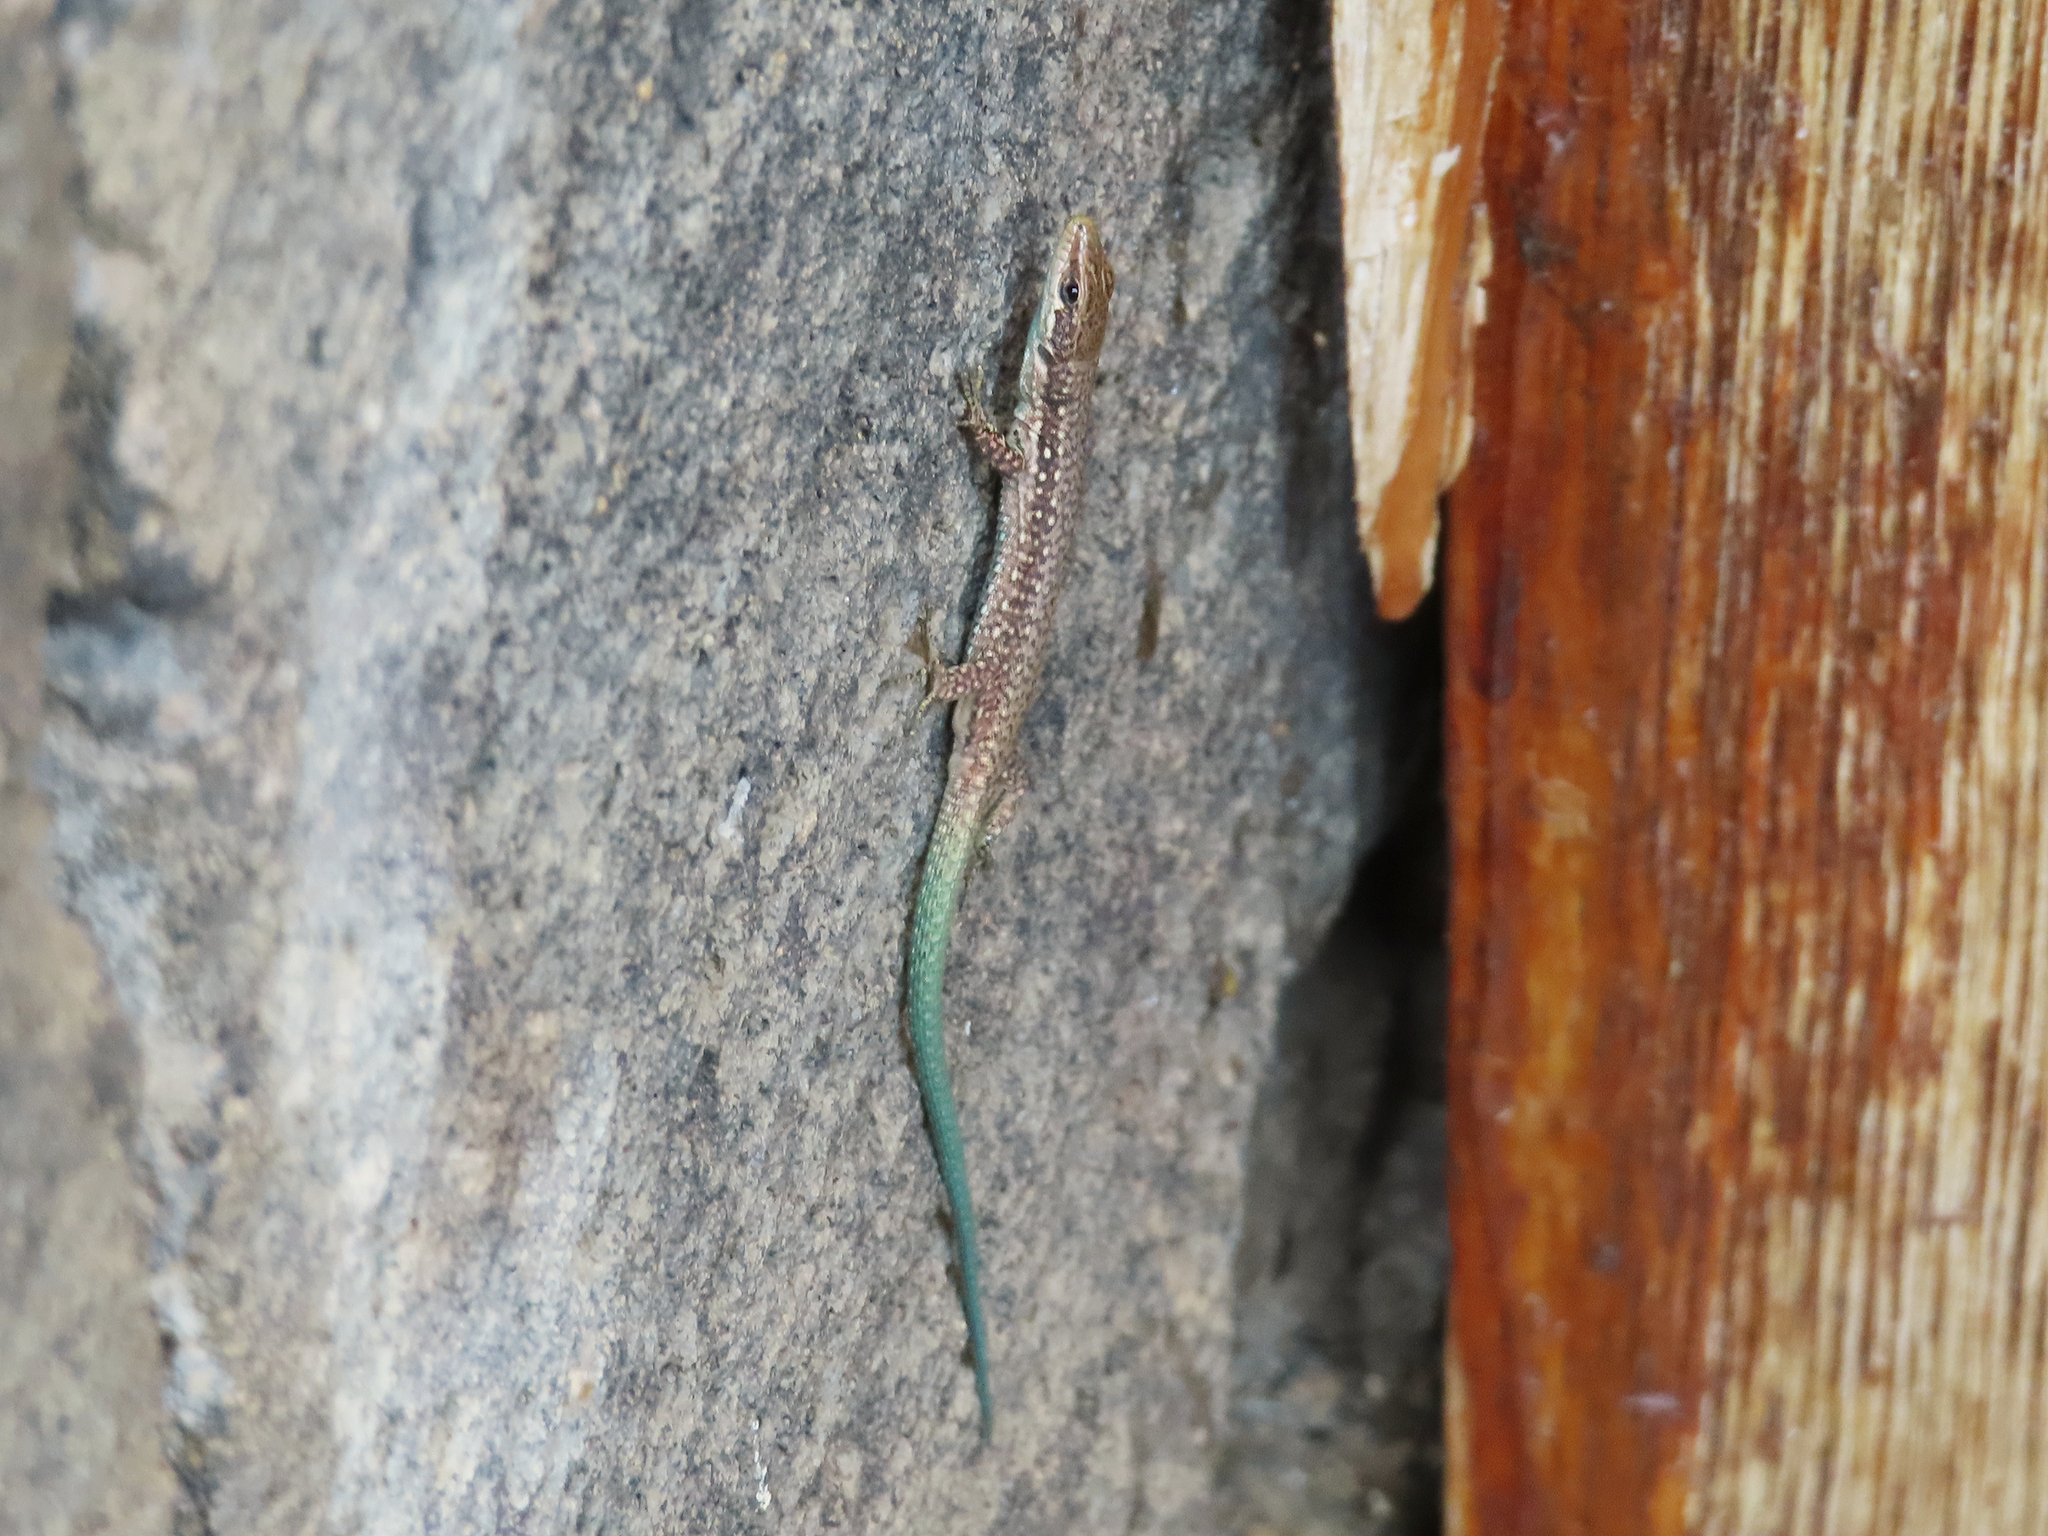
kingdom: Animalia
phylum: Chordata
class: Squamata
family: Lacertidae
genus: Darevskia
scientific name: Darevskia raddei
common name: Radde's lizard
